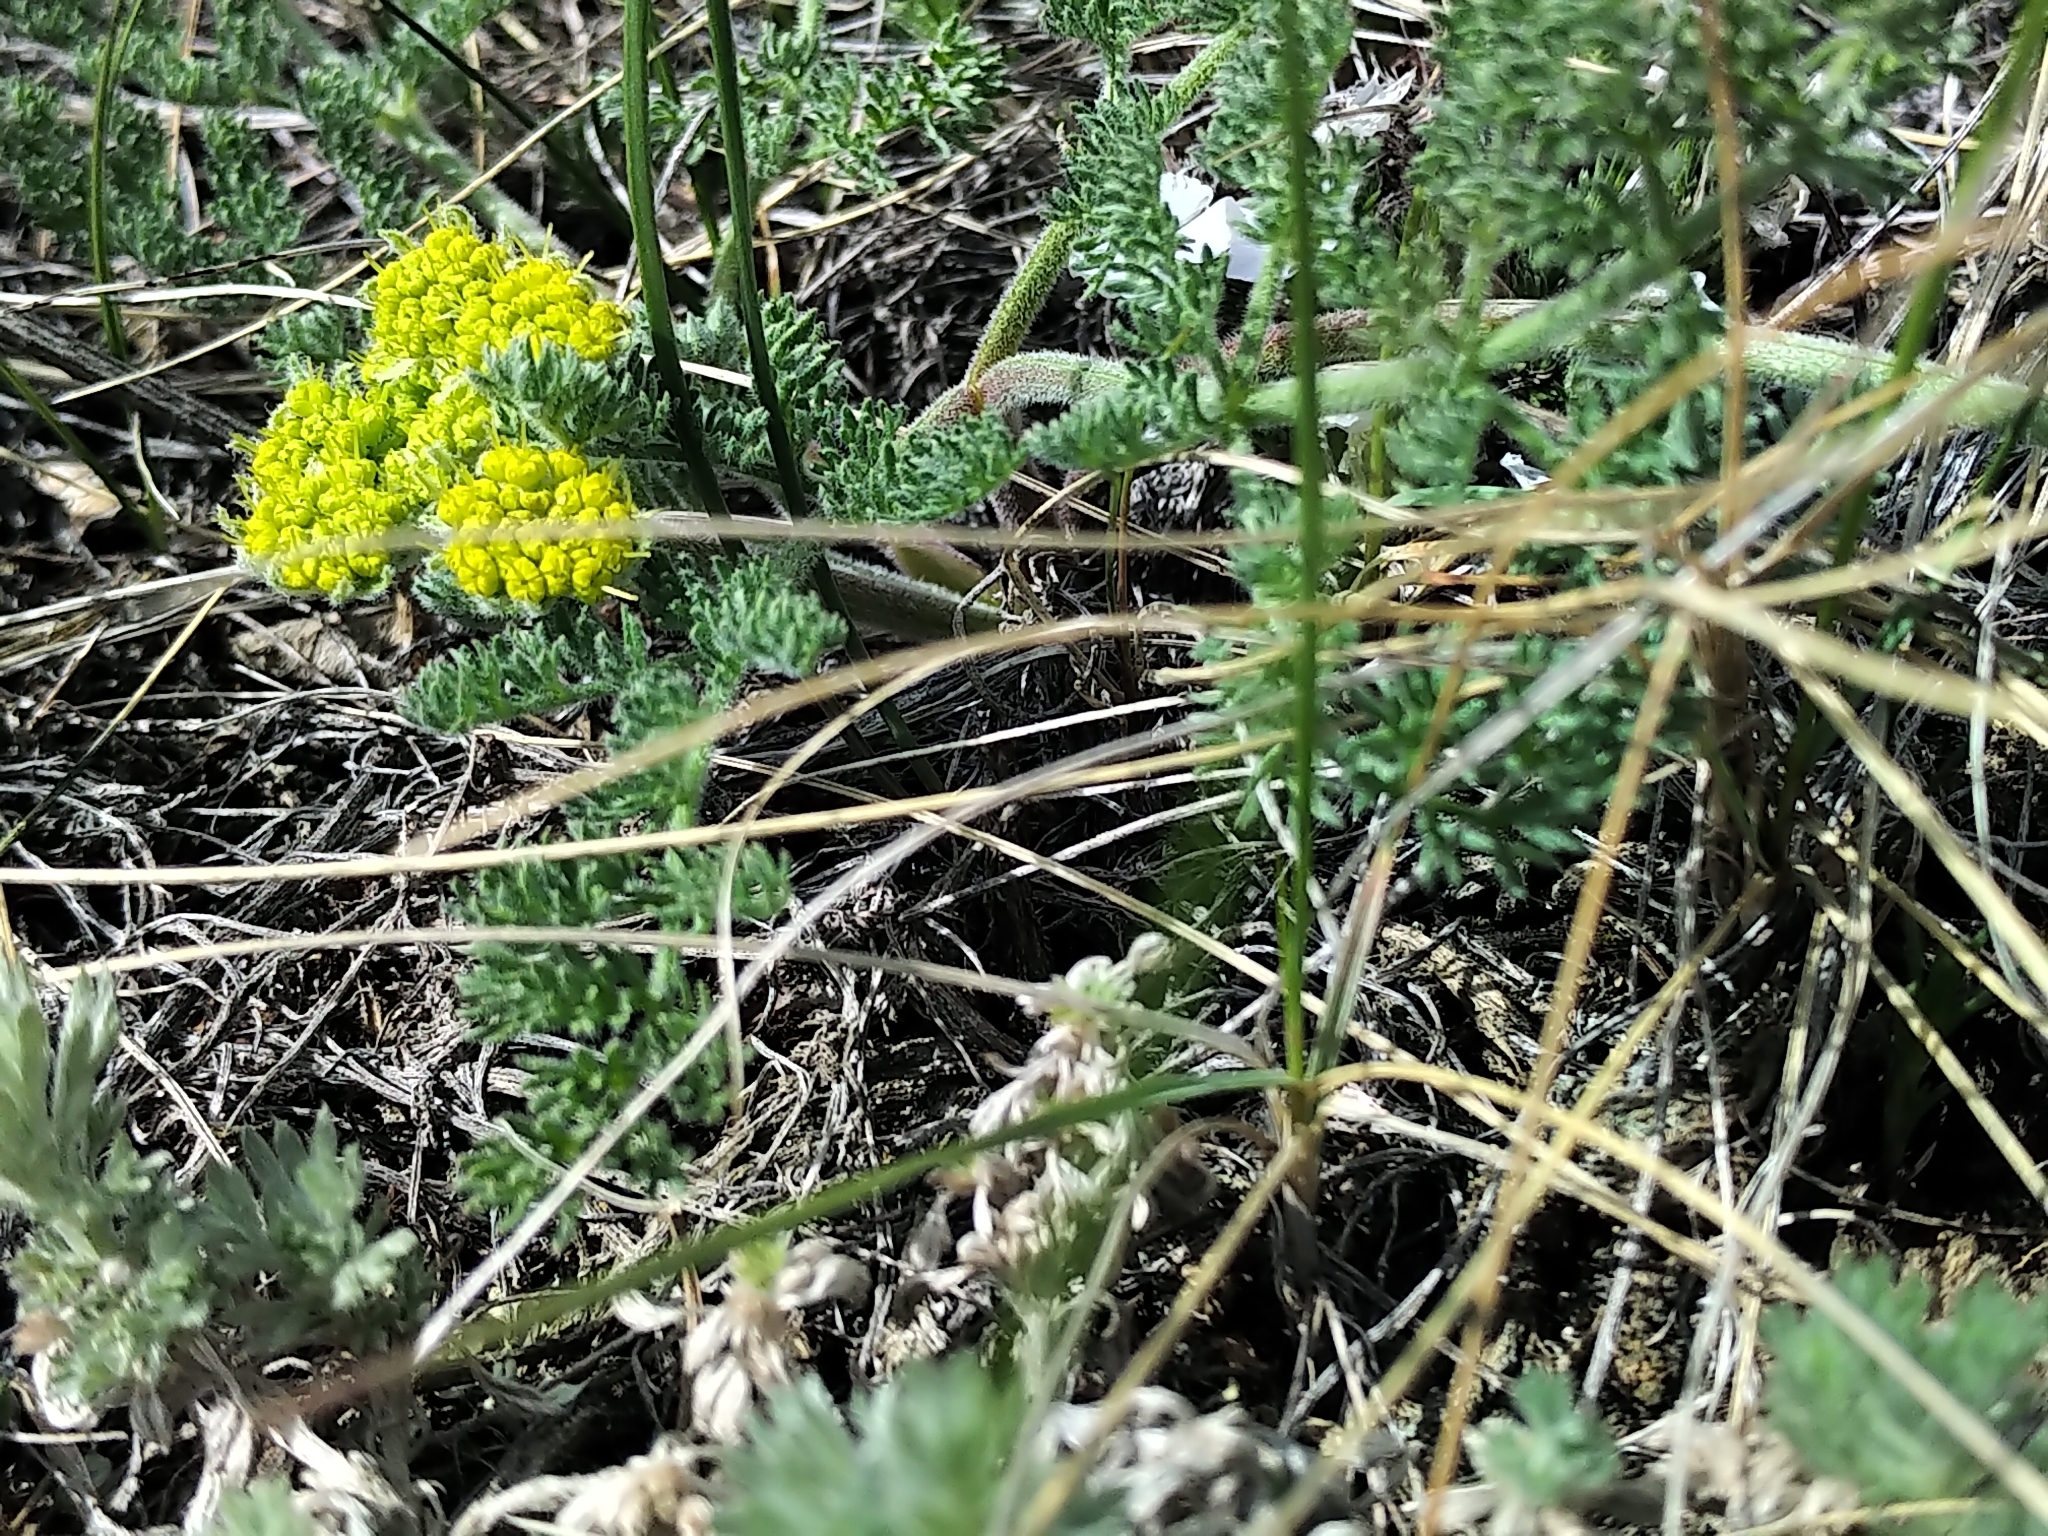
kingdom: Plantae
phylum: Tracheophyta
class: Magnoliopsida
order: Apiales
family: Apiaceae
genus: Lomatium
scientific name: Lomatium foeniculaceum
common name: Desert-parsley
